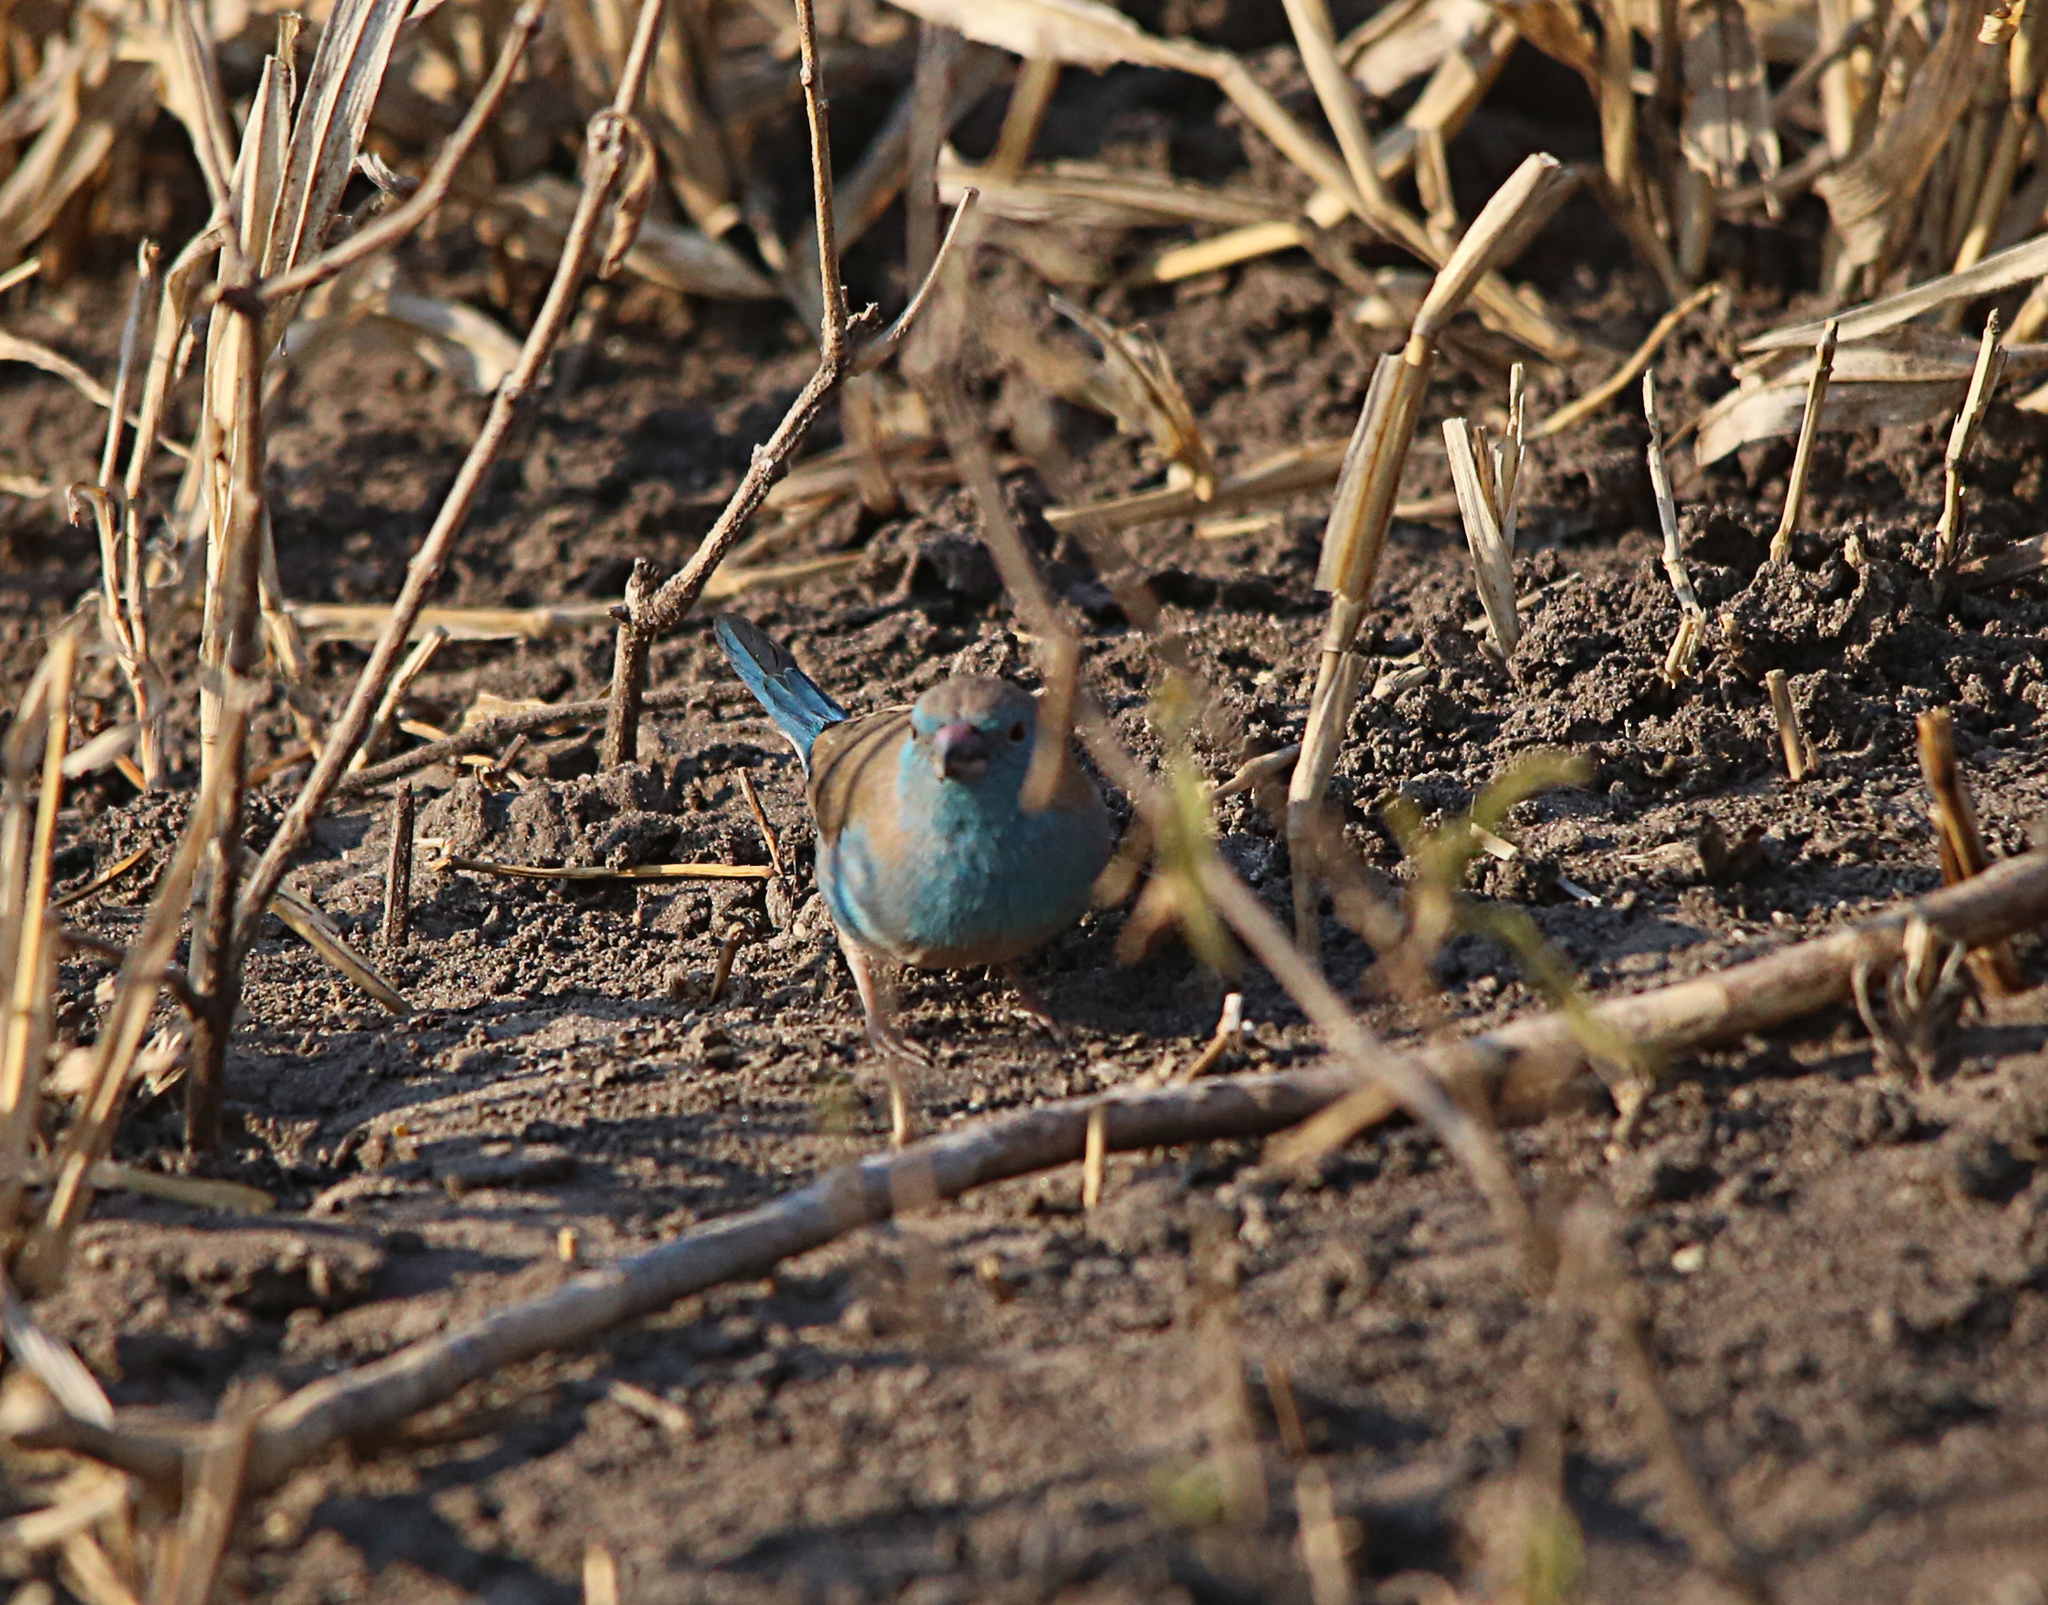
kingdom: Animalia
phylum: Chordata
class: Aves
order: Passeriformes
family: Estrildidae
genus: Uraeginthus
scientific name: Uraeginthus angolensis
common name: Blue waxbill
